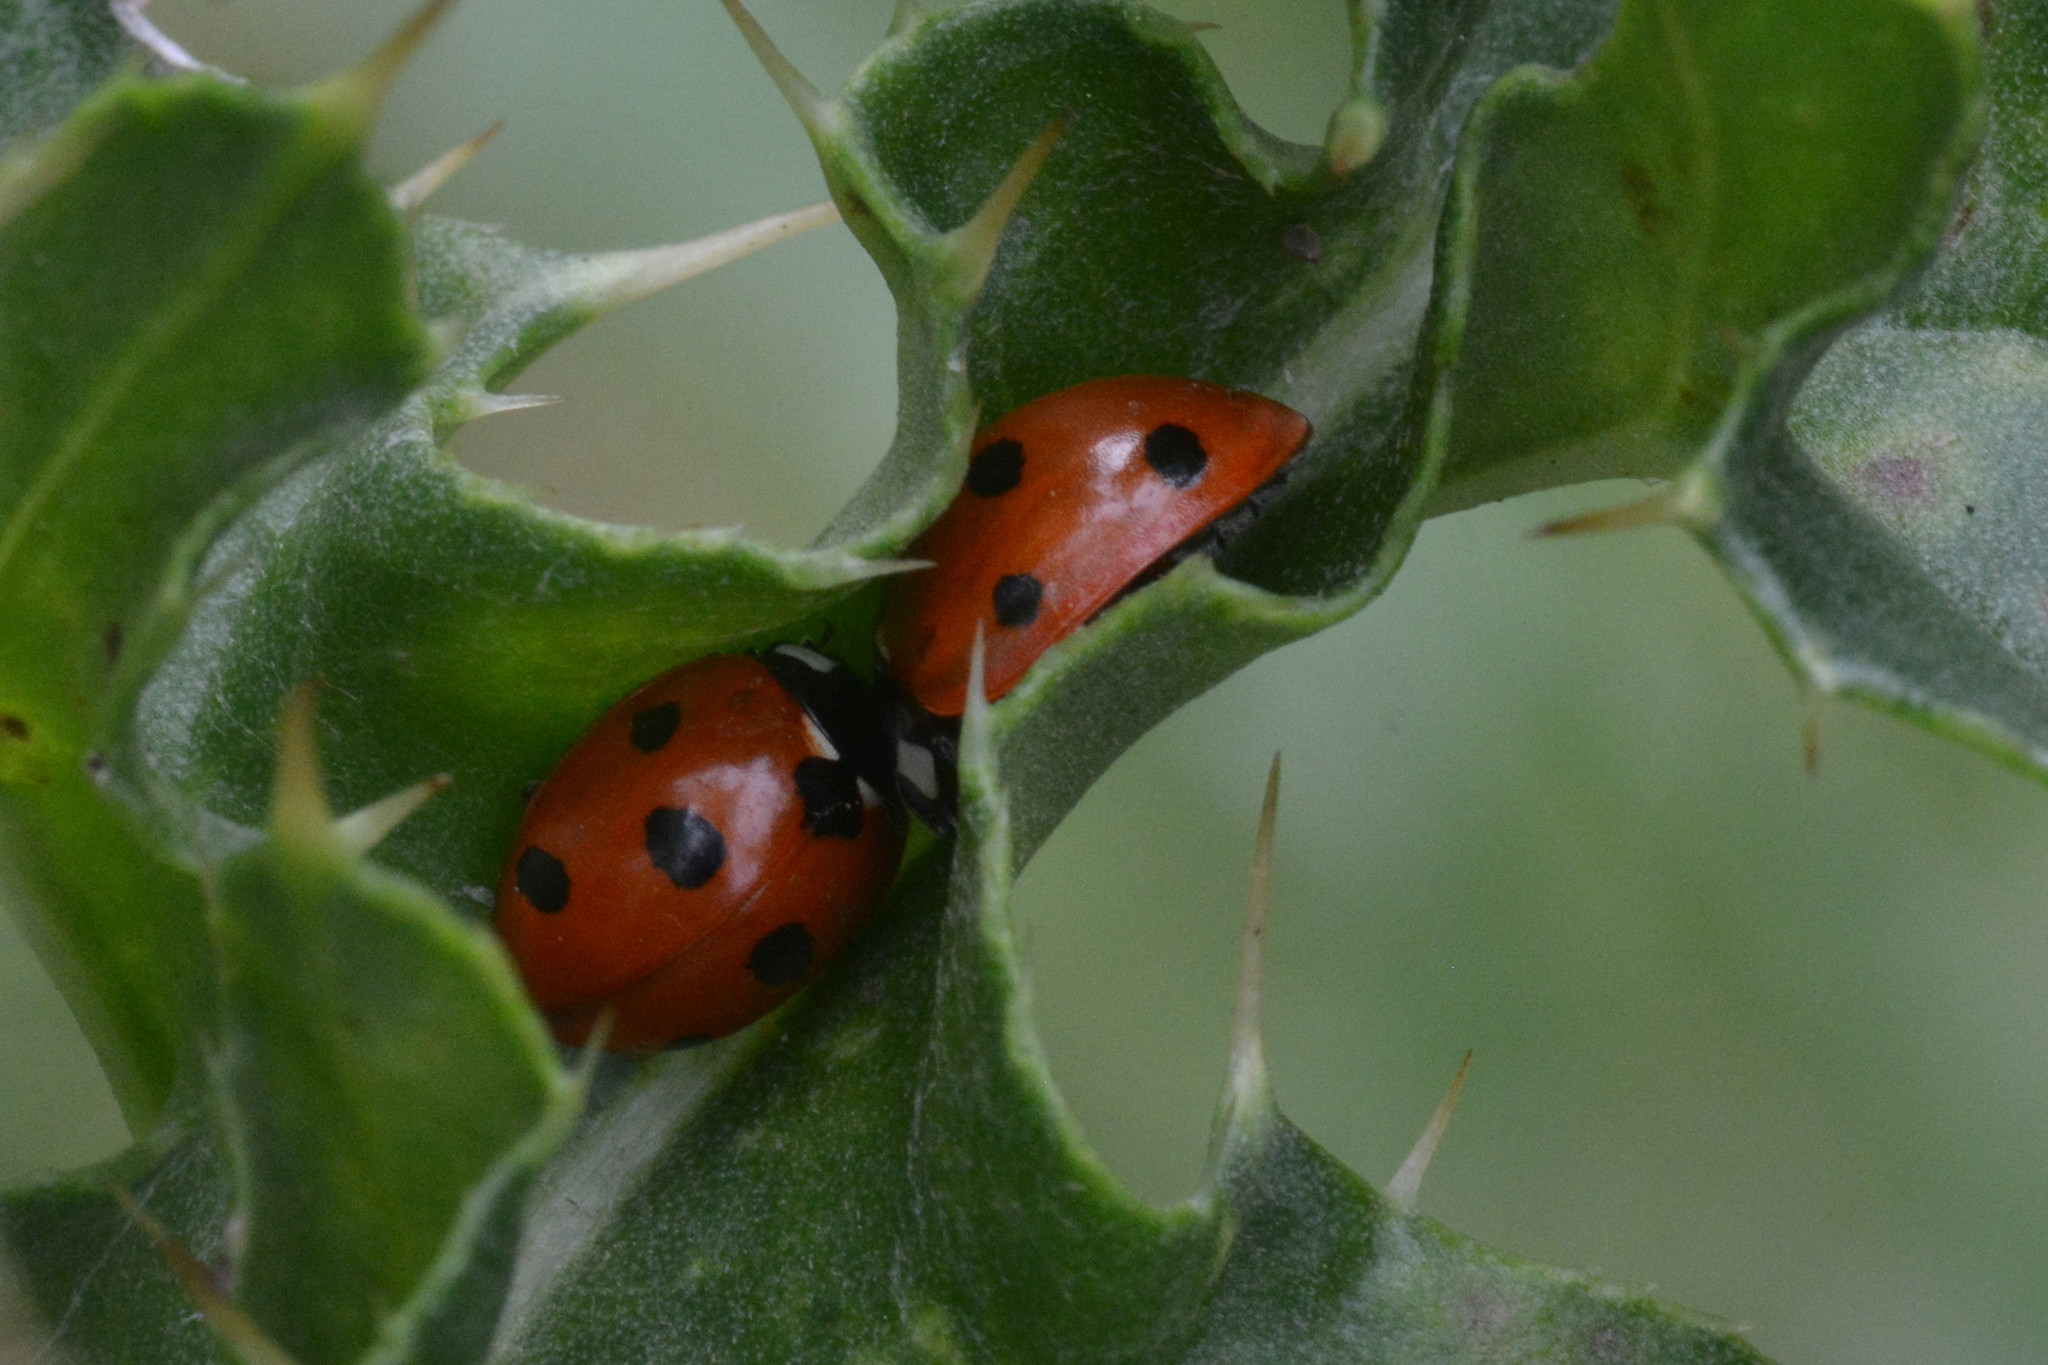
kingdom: Animalia
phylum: Arthropoda
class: Insecta
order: Coleoptera
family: Coccinellidae
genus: Coccinella
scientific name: Coccinella septempunctata
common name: Sevenspotted lady beetle
